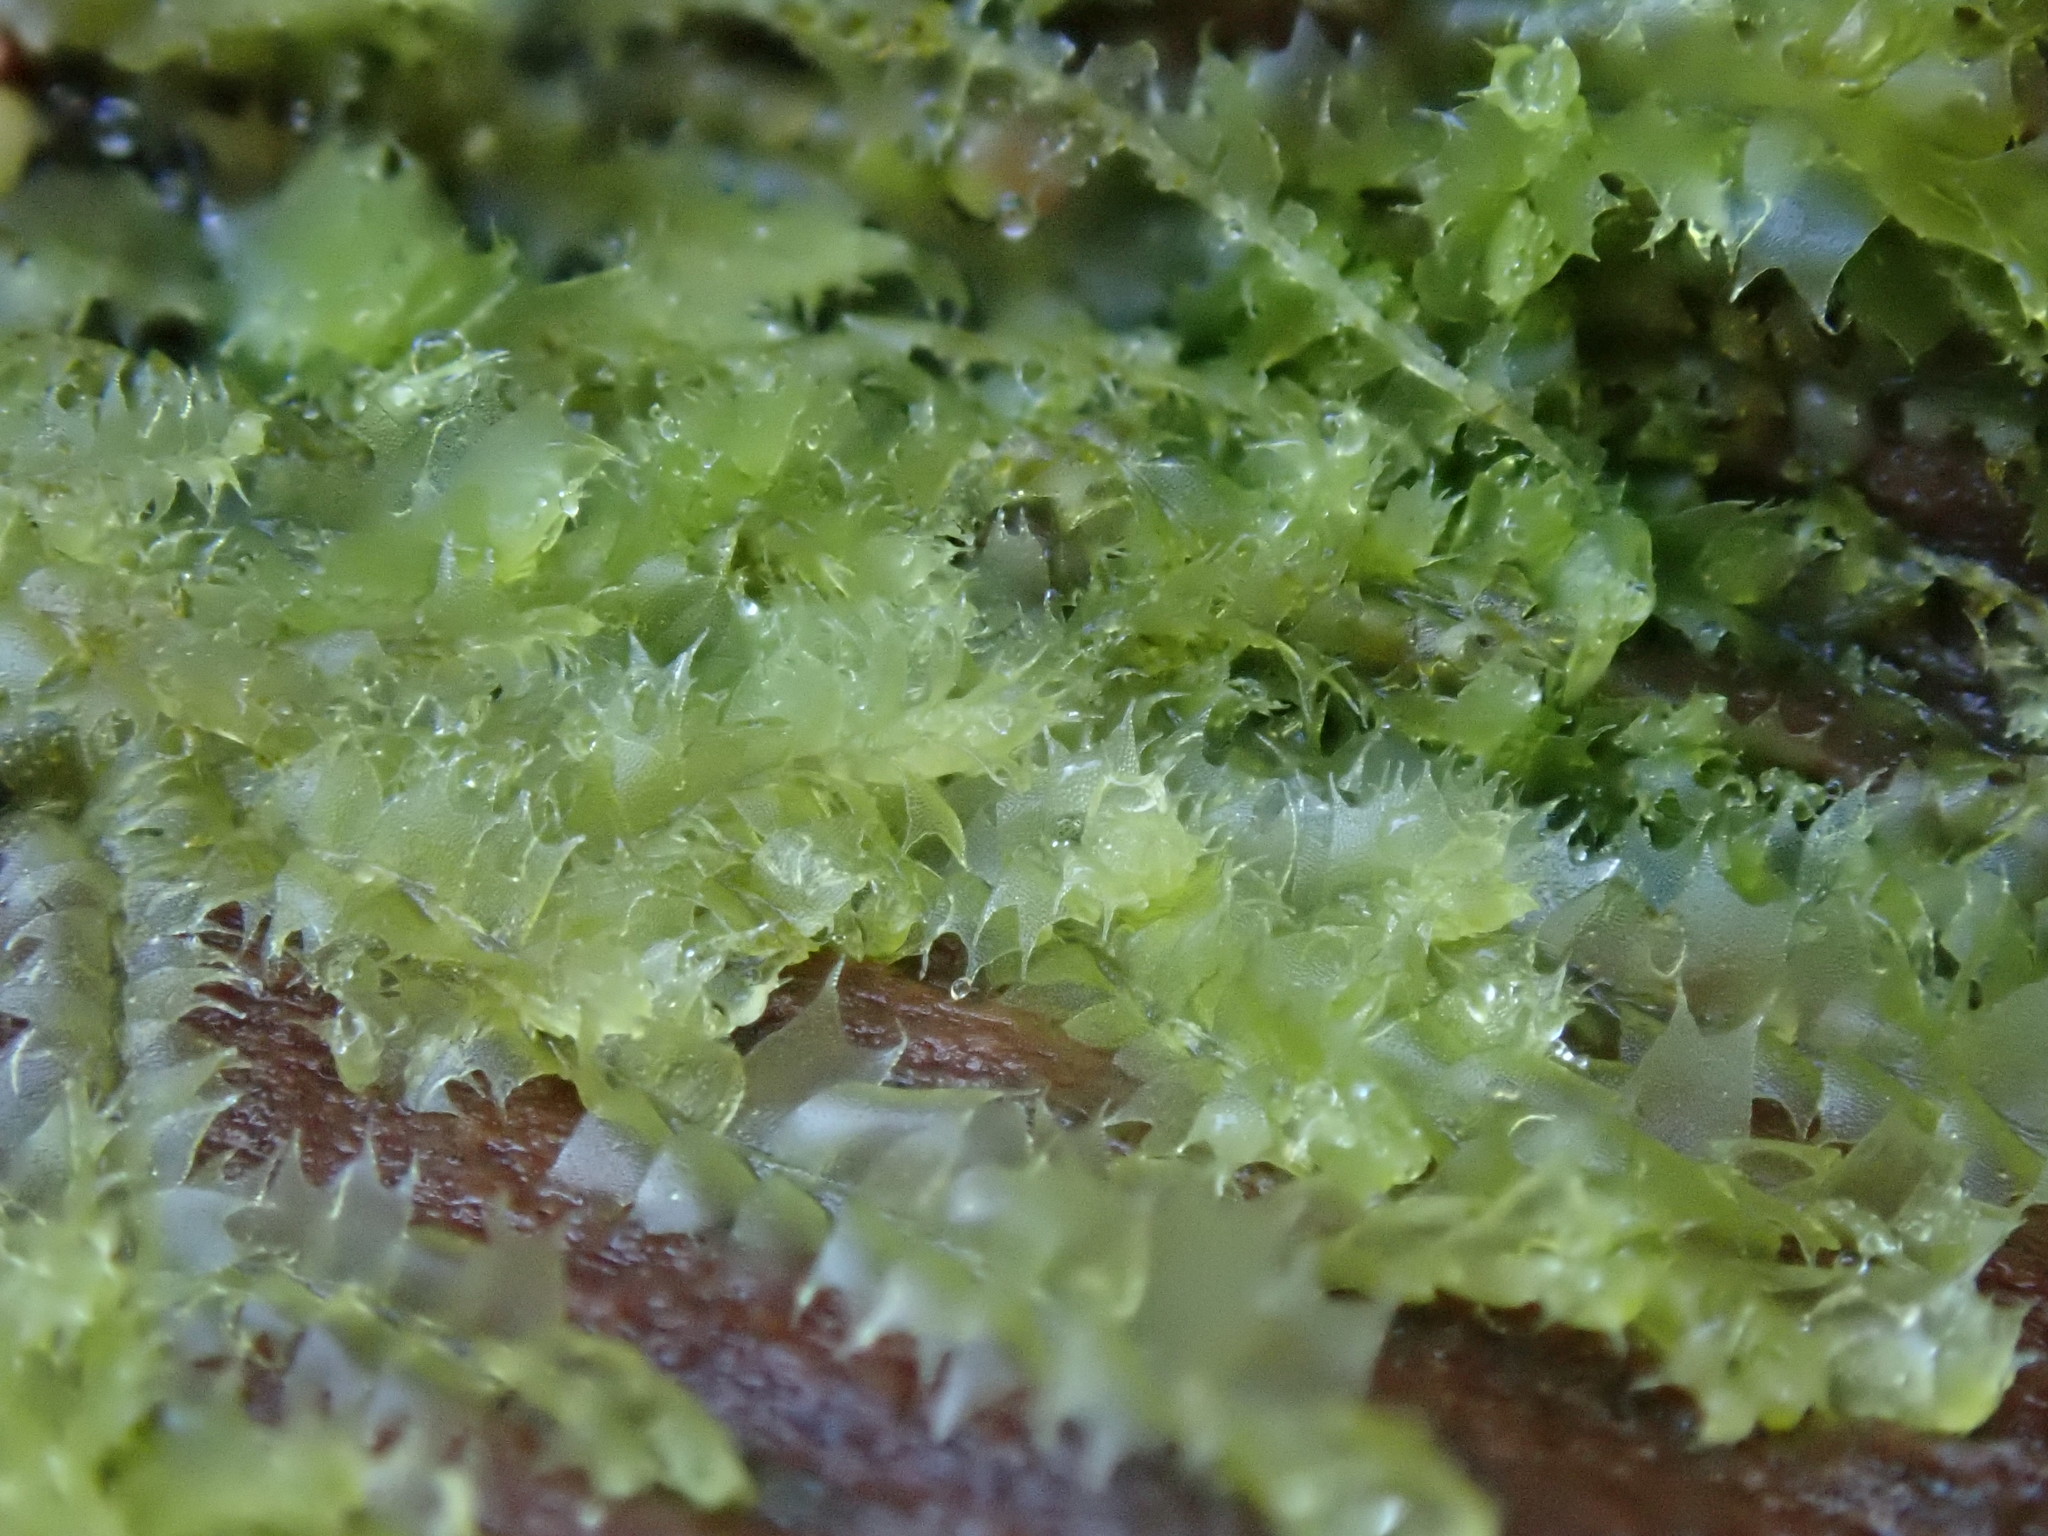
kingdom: Plantae
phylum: Marchantiophyta
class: Jungermanniopsida
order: Jungermanniales
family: Lophocoleaceae
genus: Lophocolea
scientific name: Lophocolea bidentata
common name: Bifid crestwort
